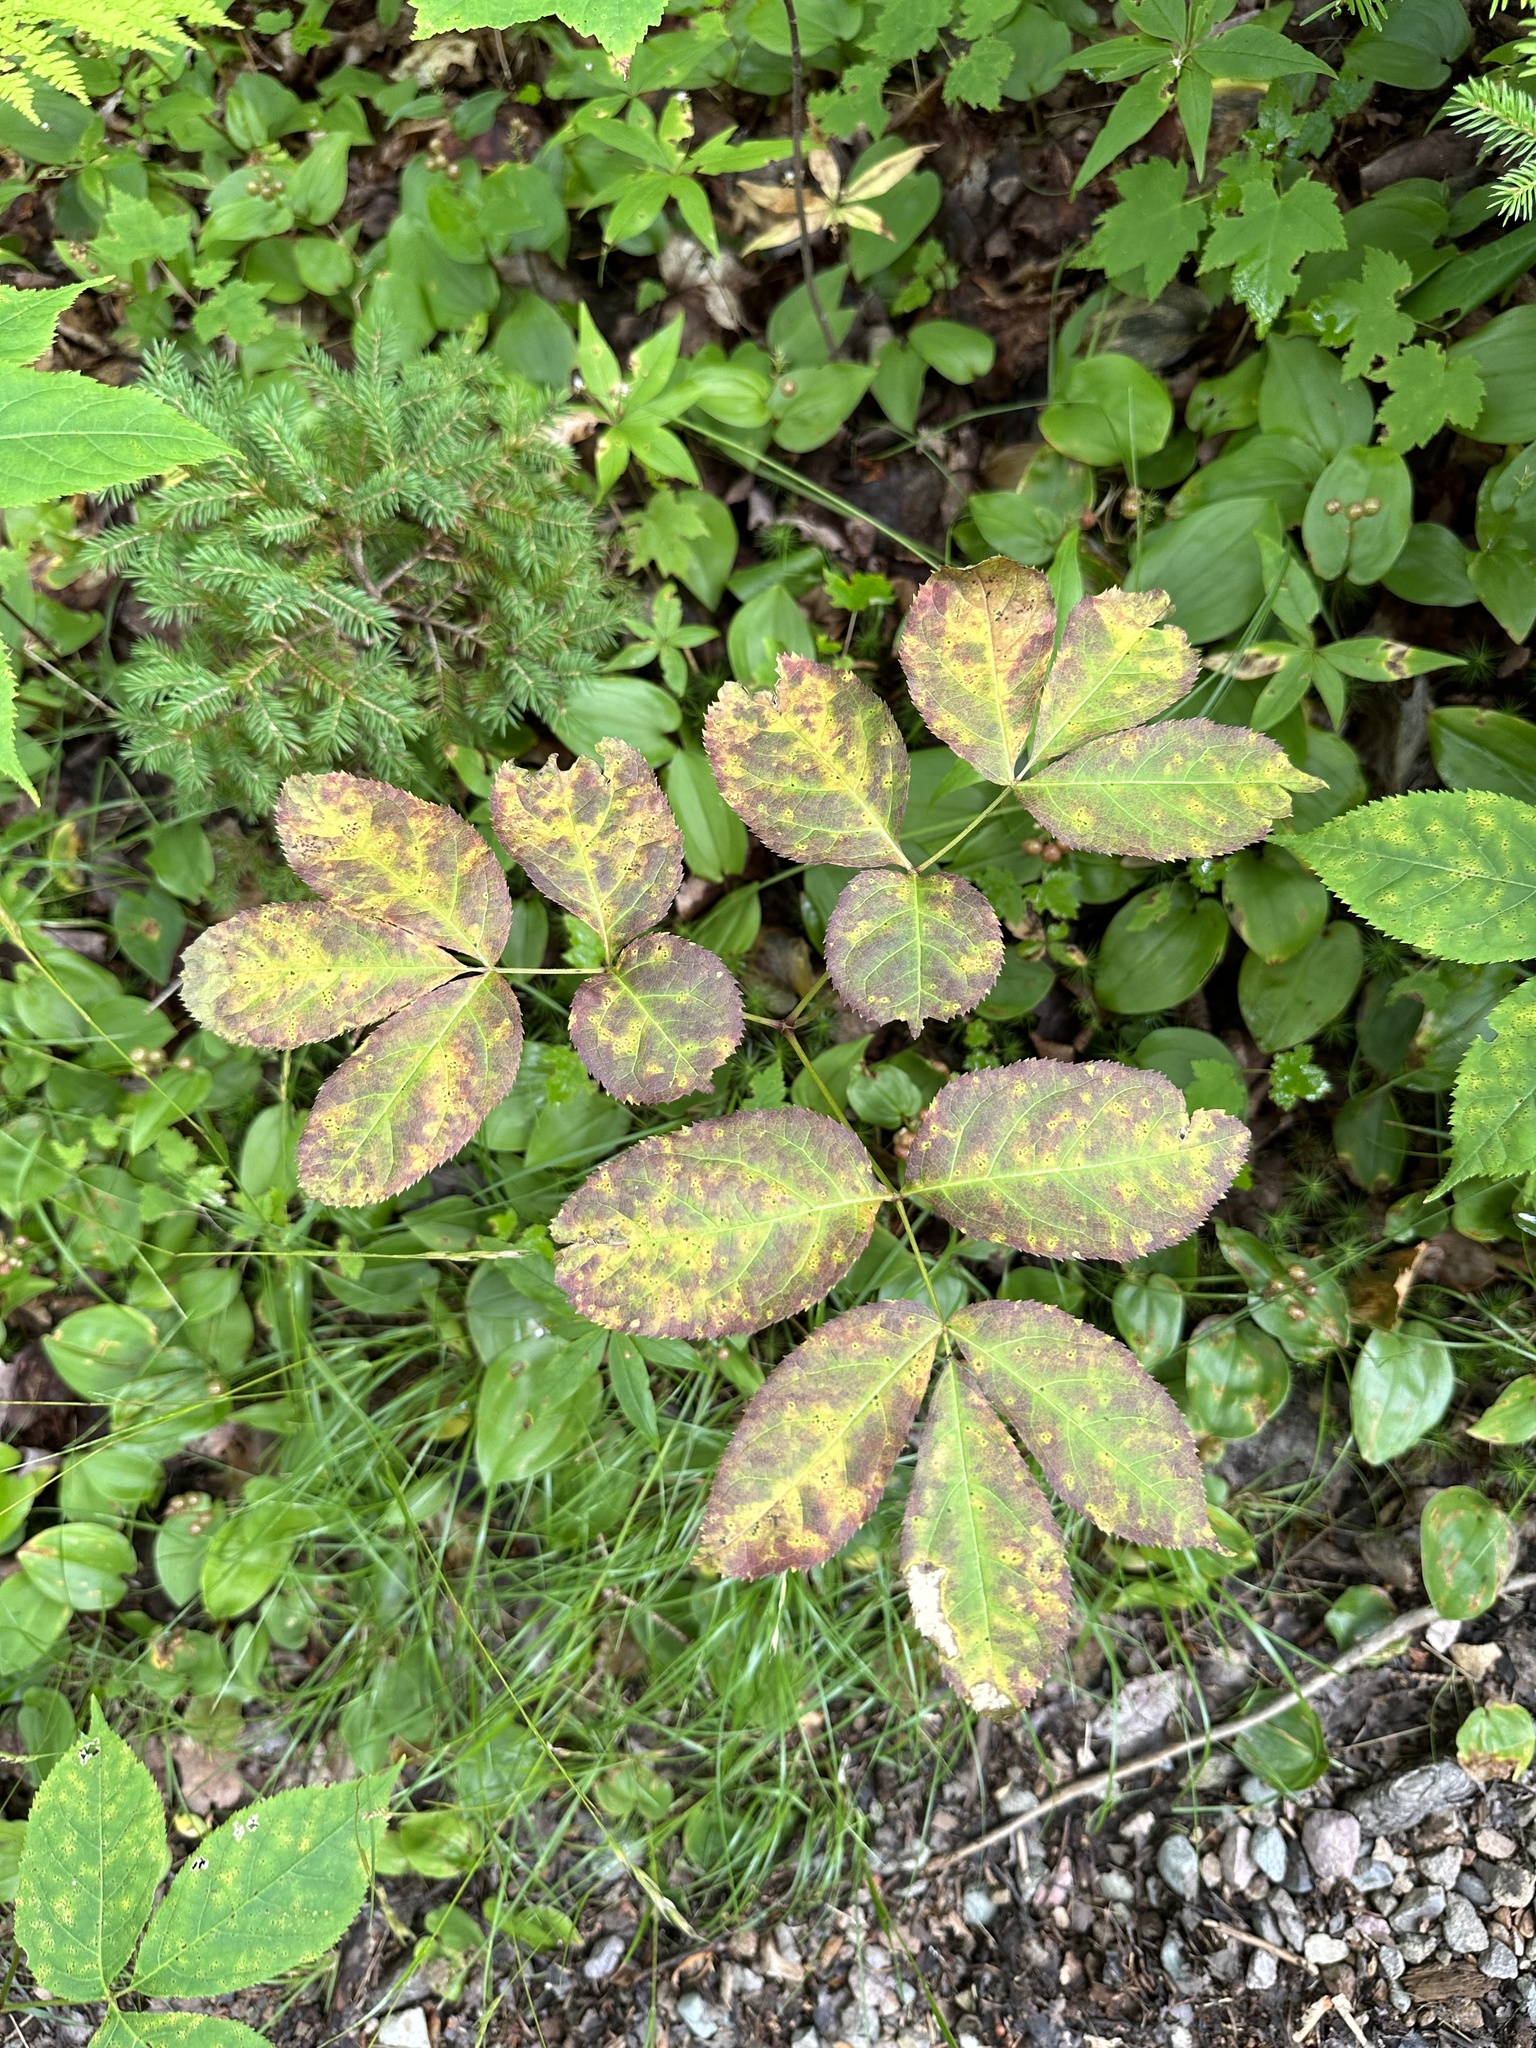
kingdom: Plantae
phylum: Tracheophyta
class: Magnoliopsida
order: Apiales
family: Araliaceae
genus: Aralia
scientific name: Aralia nudicaulis
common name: Wild sarsaparilla
